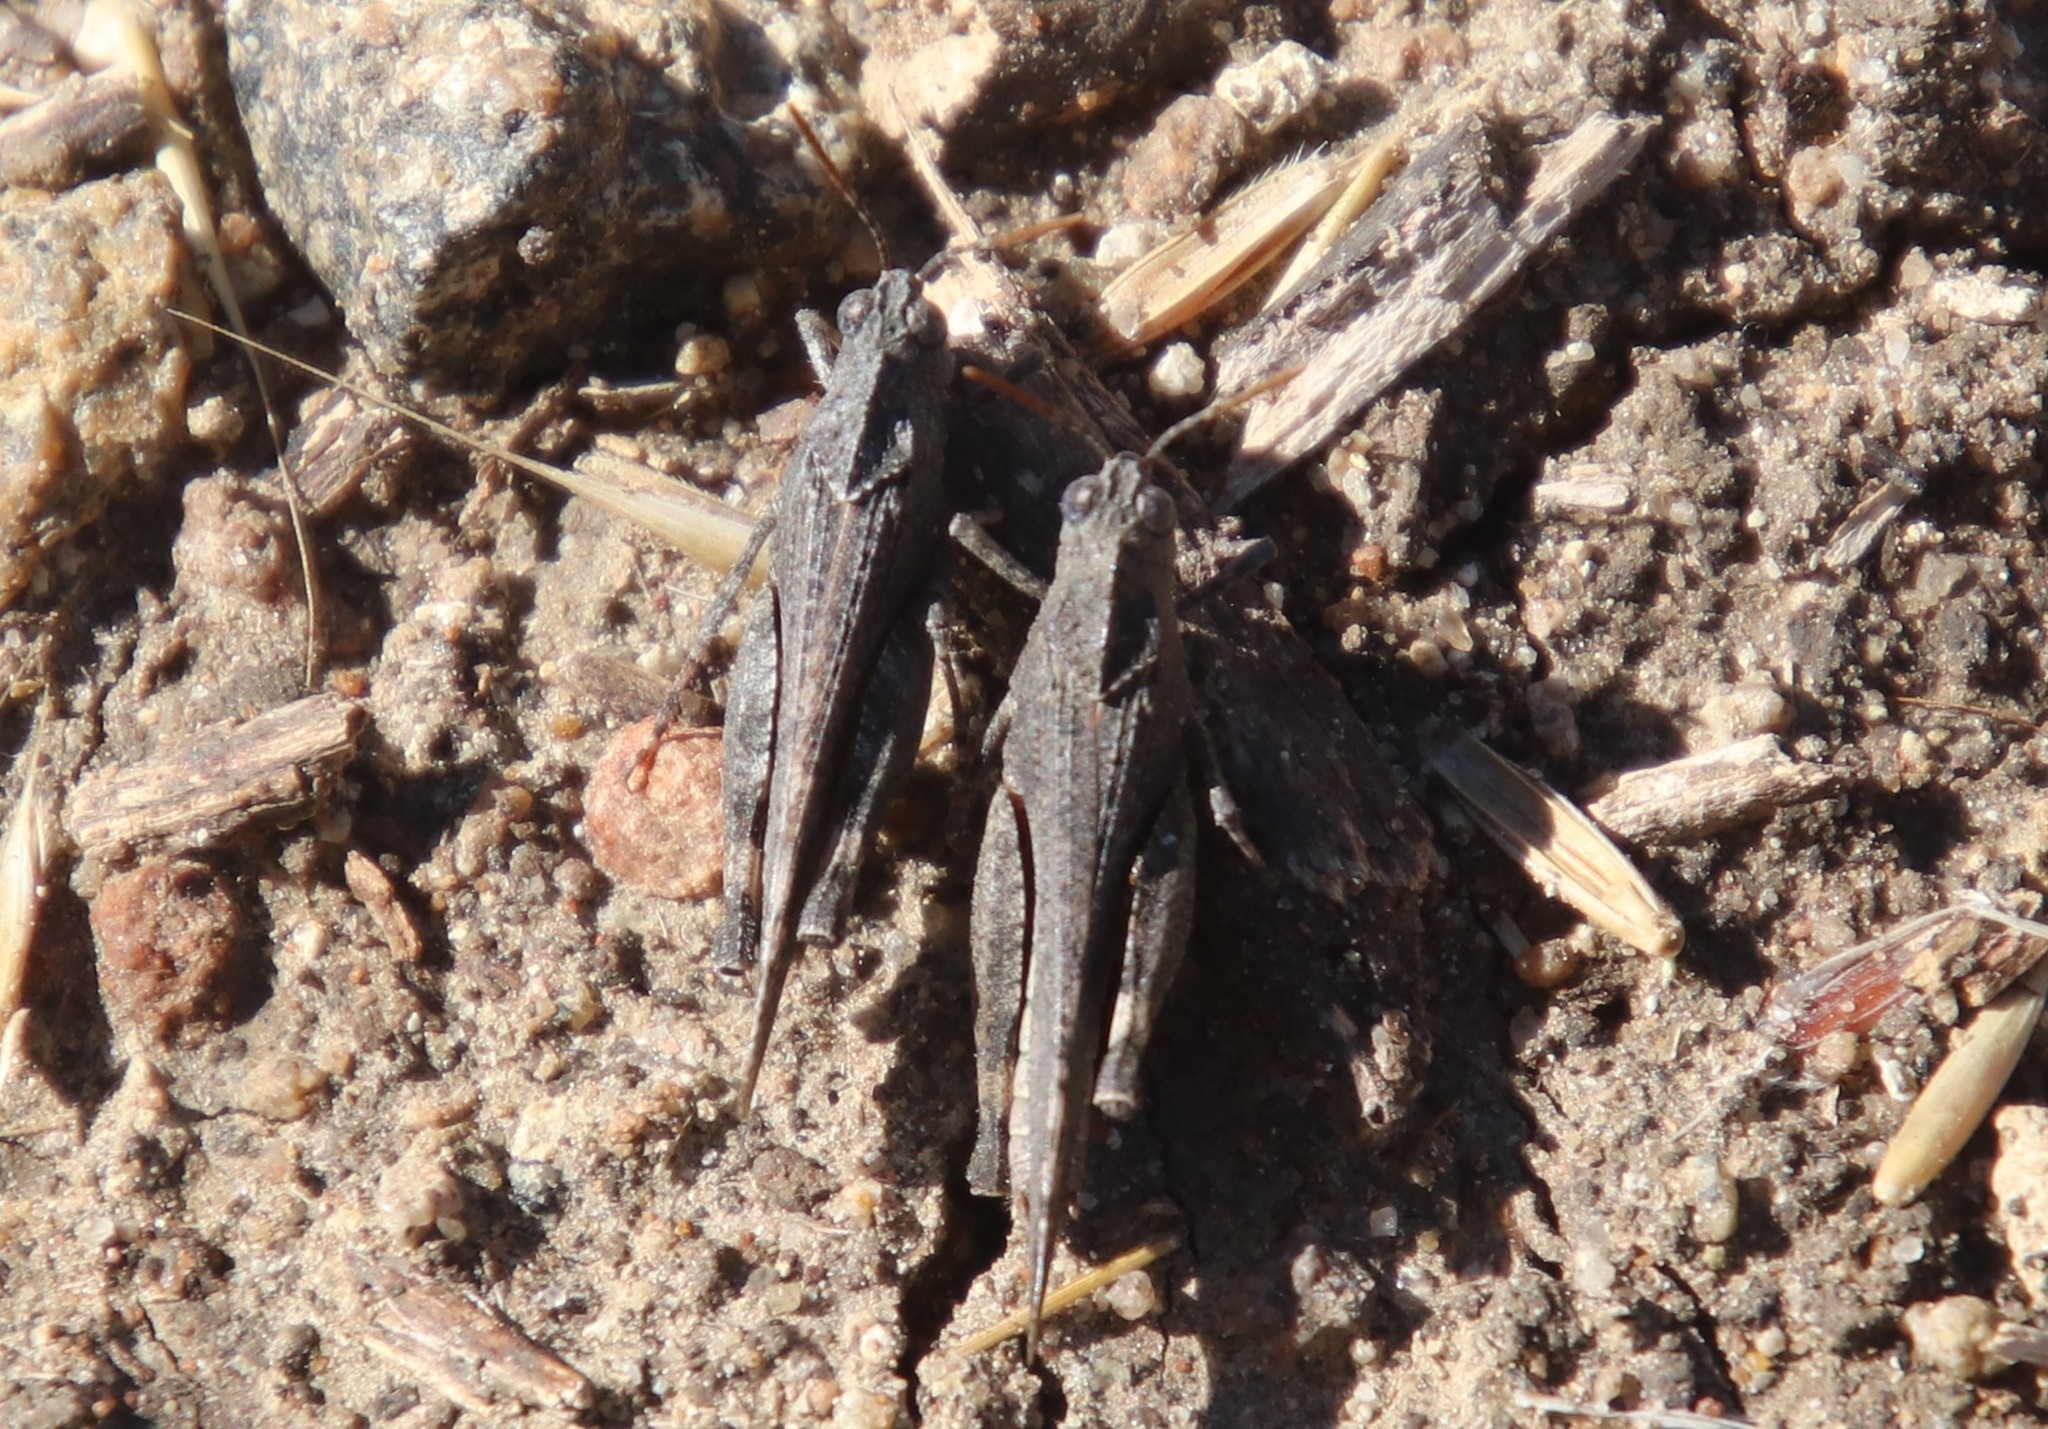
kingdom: Animalia
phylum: Arthropoda
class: Insecta
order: Orthoptera
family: Acrididae
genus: Lactista
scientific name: Lactista gibbosus
